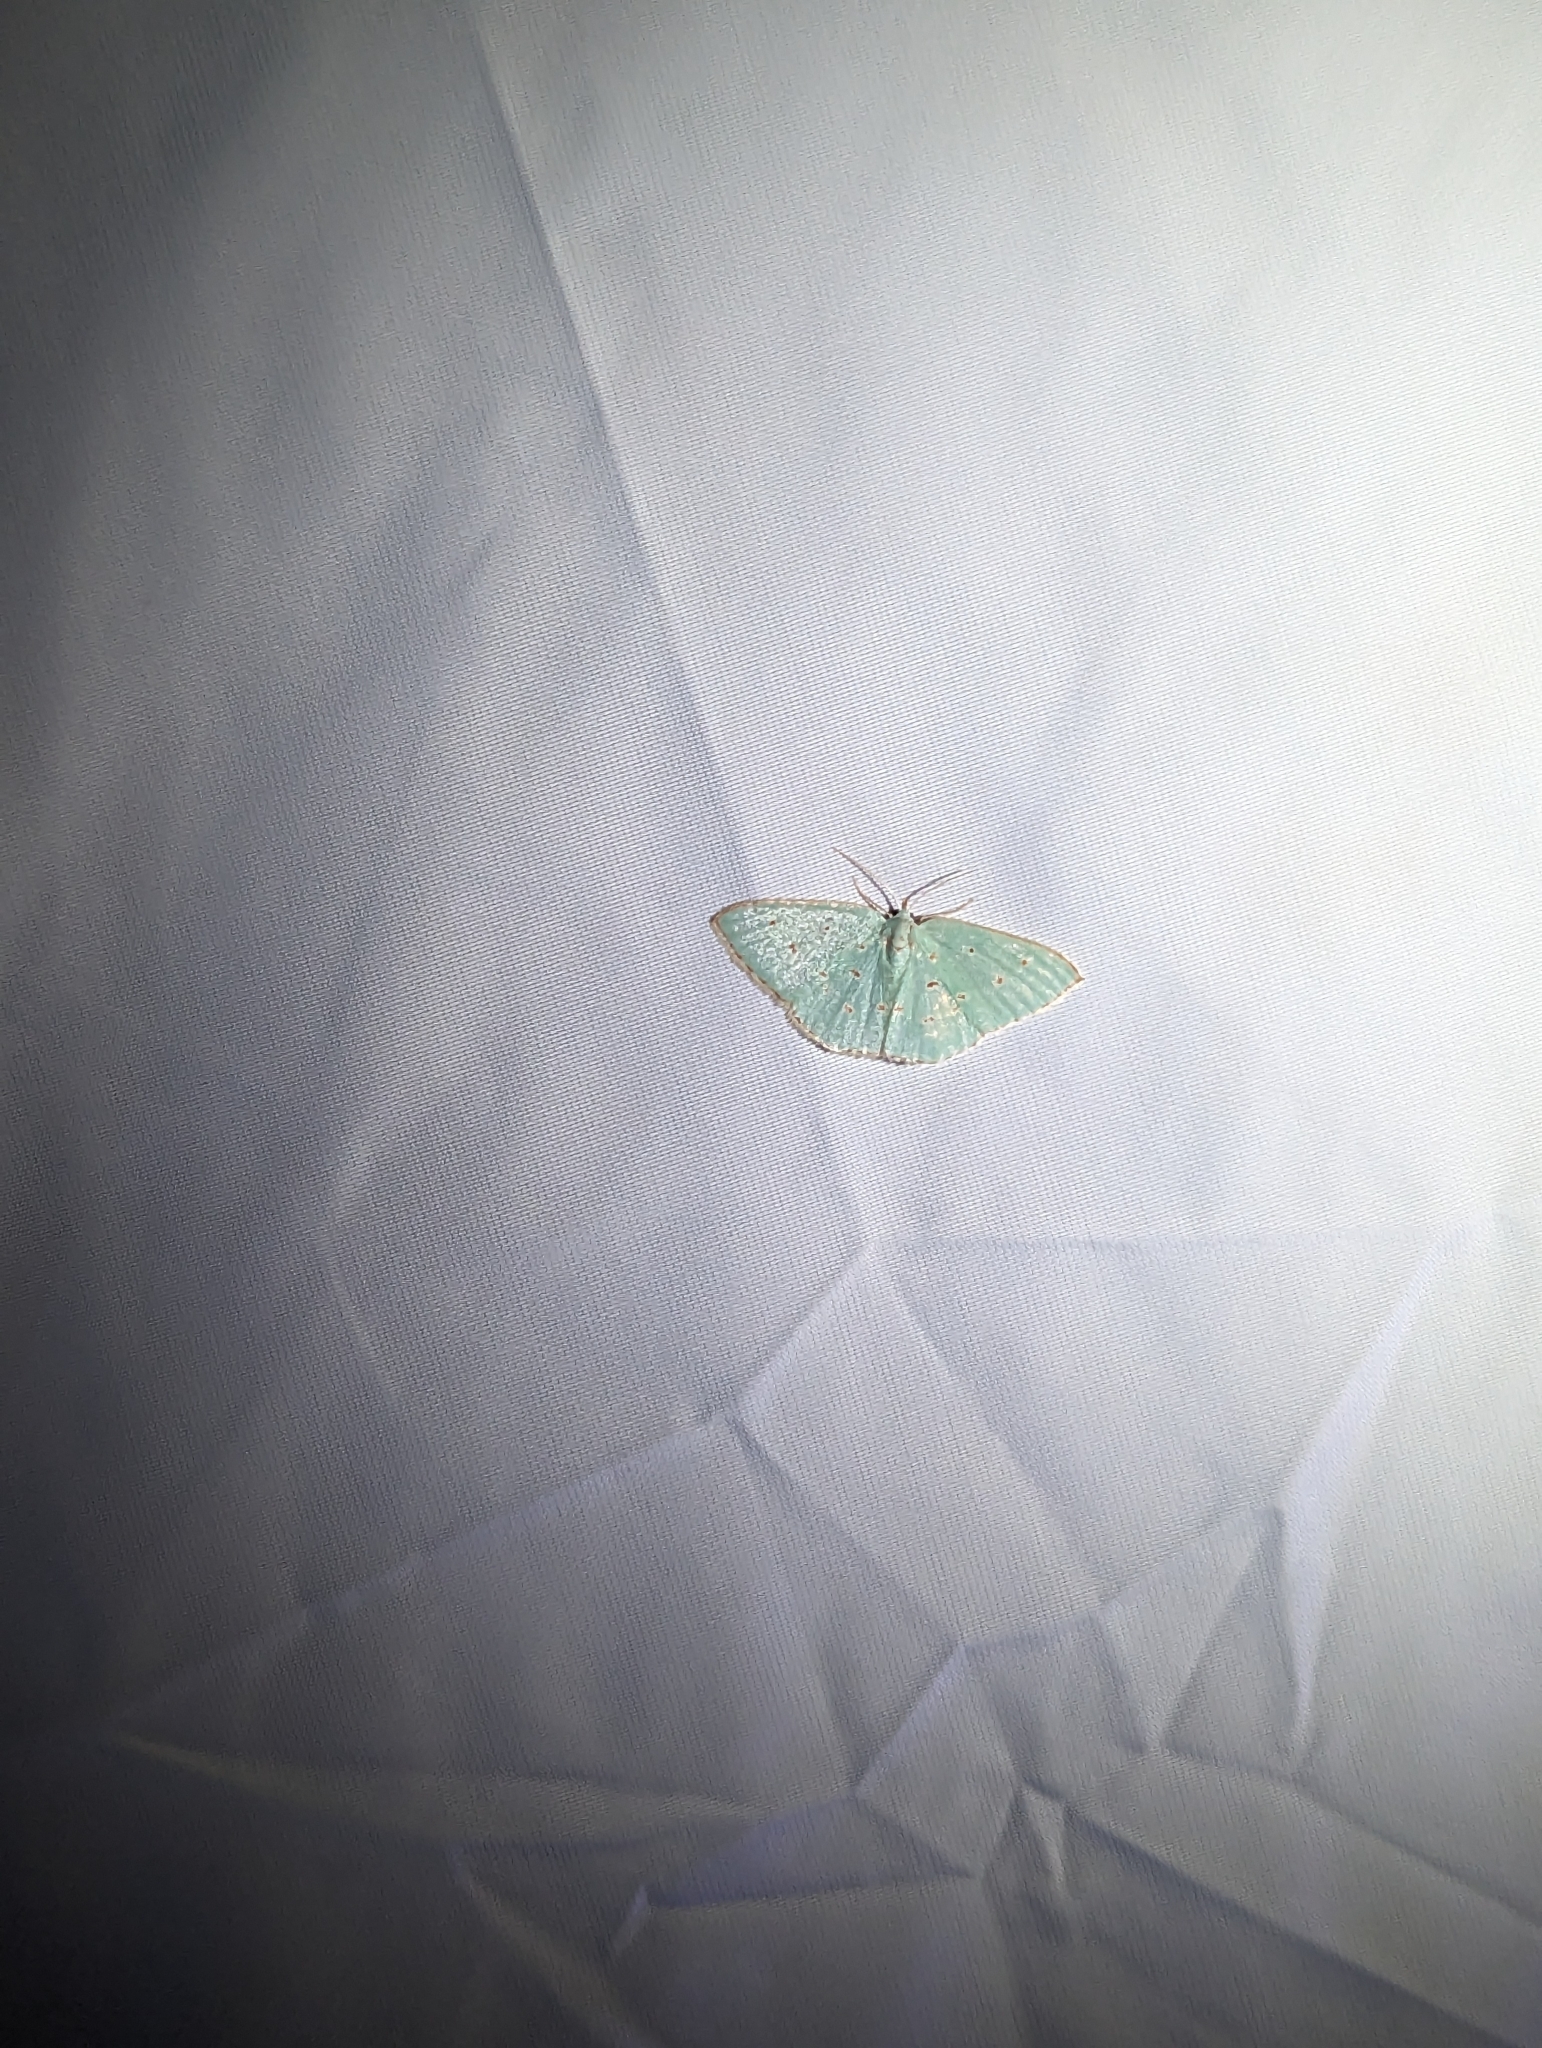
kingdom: Animalia
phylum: Arthropoda
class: Insecta
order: Lepidoptera
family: Geometridae
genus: Comostolopsis
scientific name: Comostolopsis stillata
